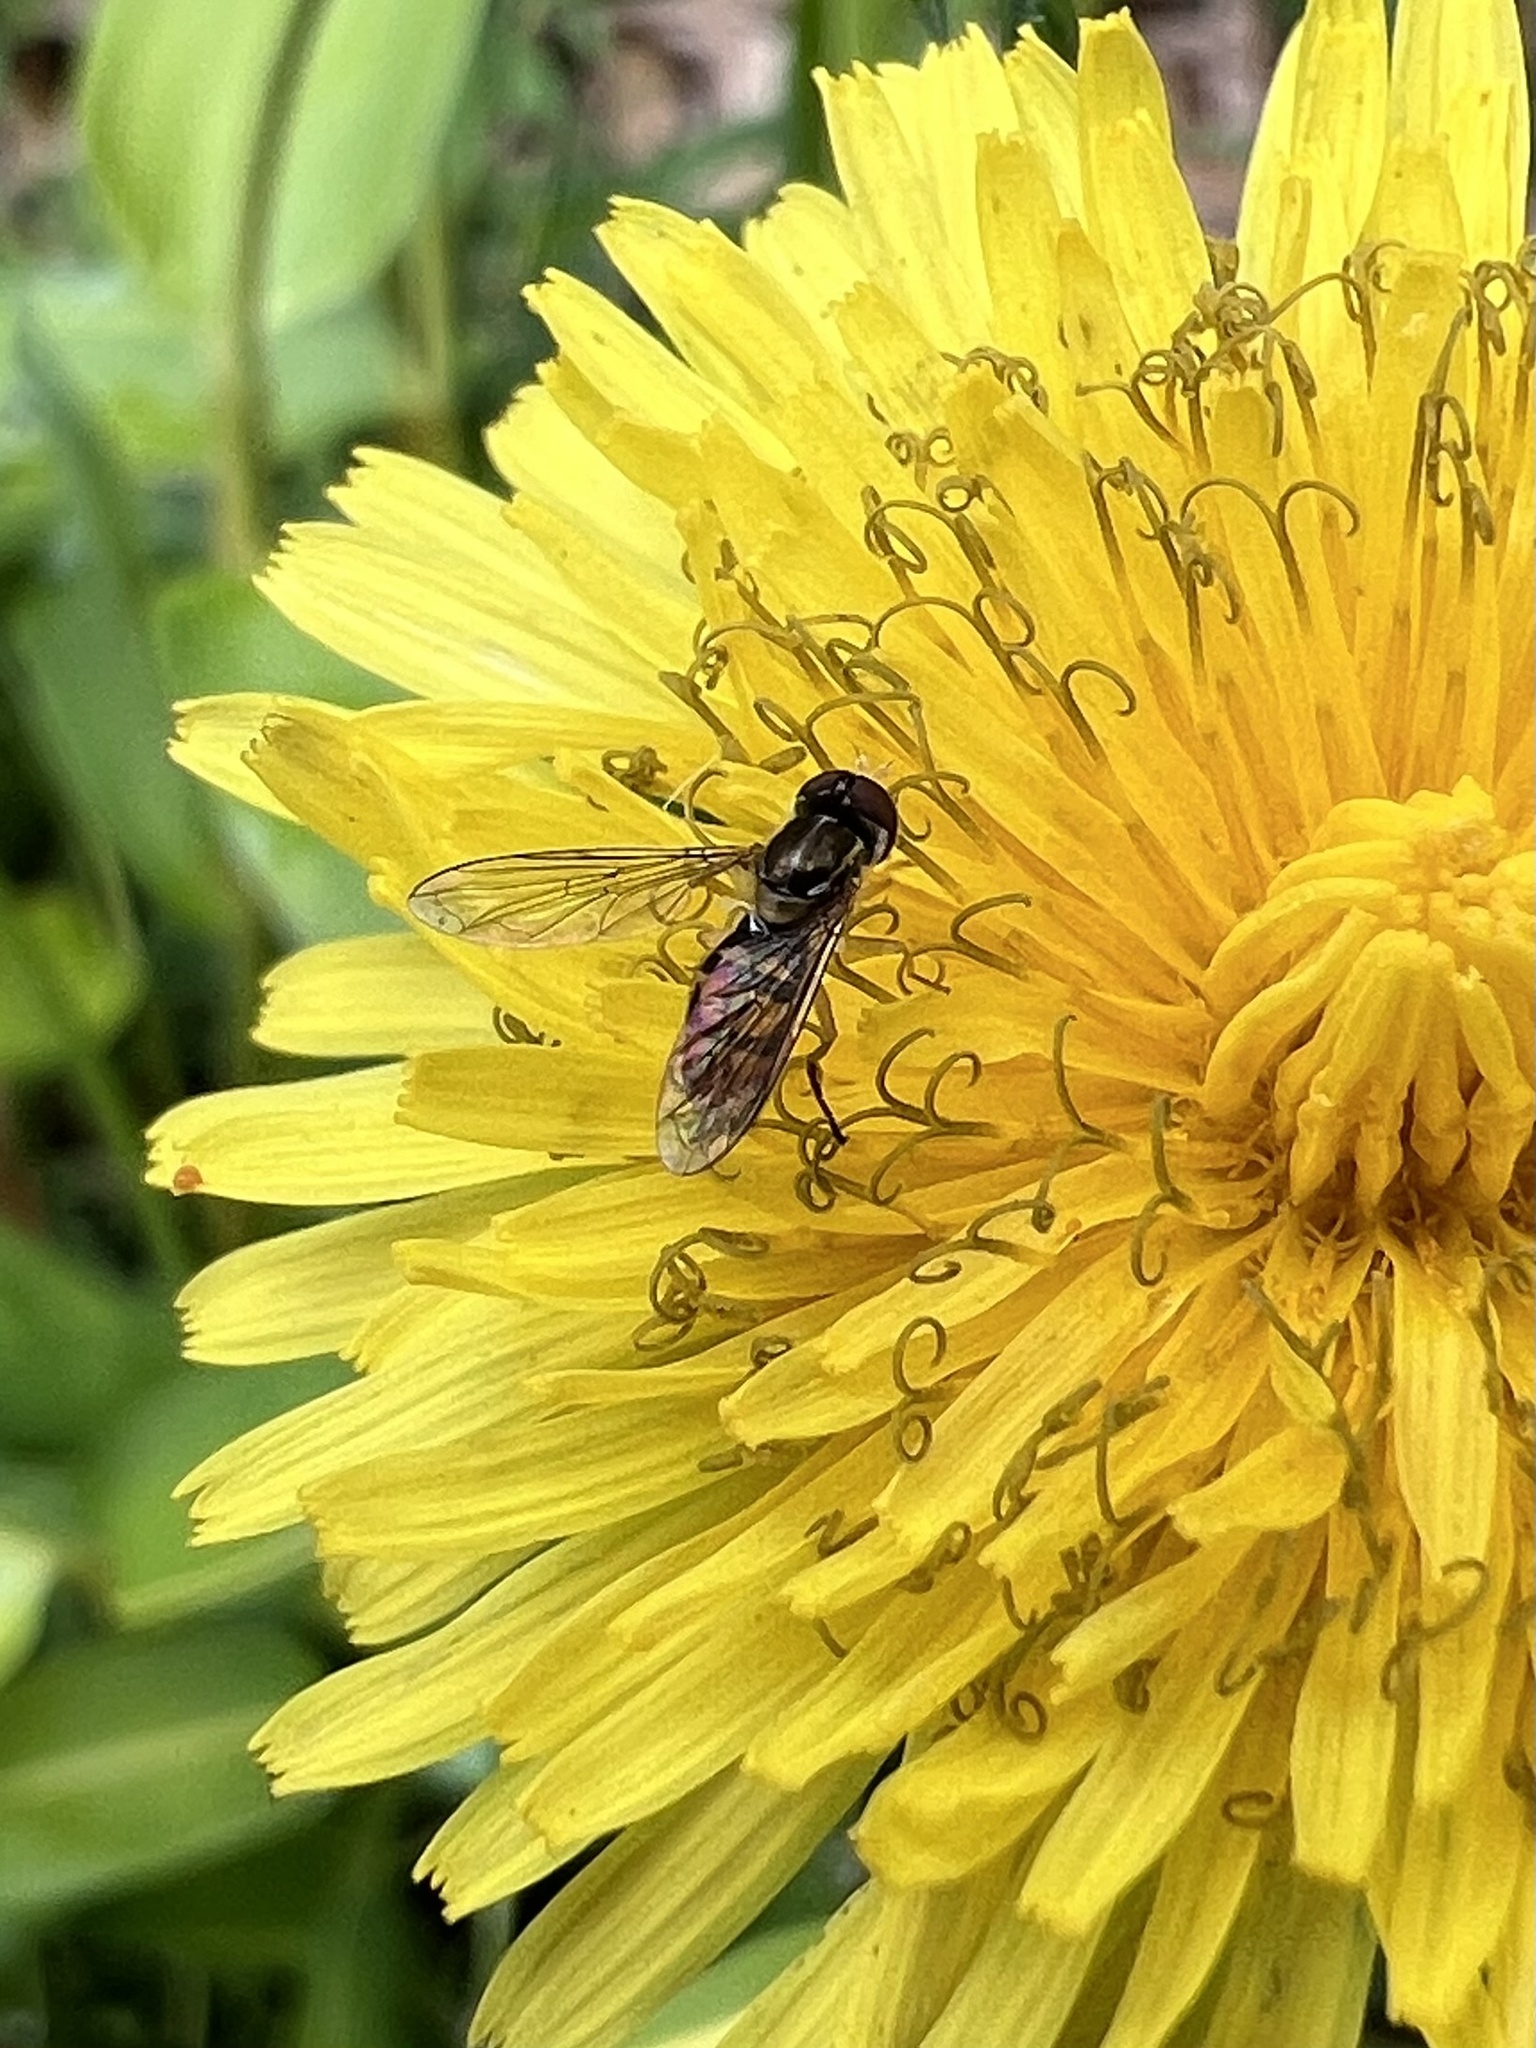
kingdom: Animalia
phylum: Arthropoda
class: Insecta
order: Diptera
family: Syrphidae
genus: Toxomerus
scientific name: Toxomerus marginatus
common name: Syrphid fly
